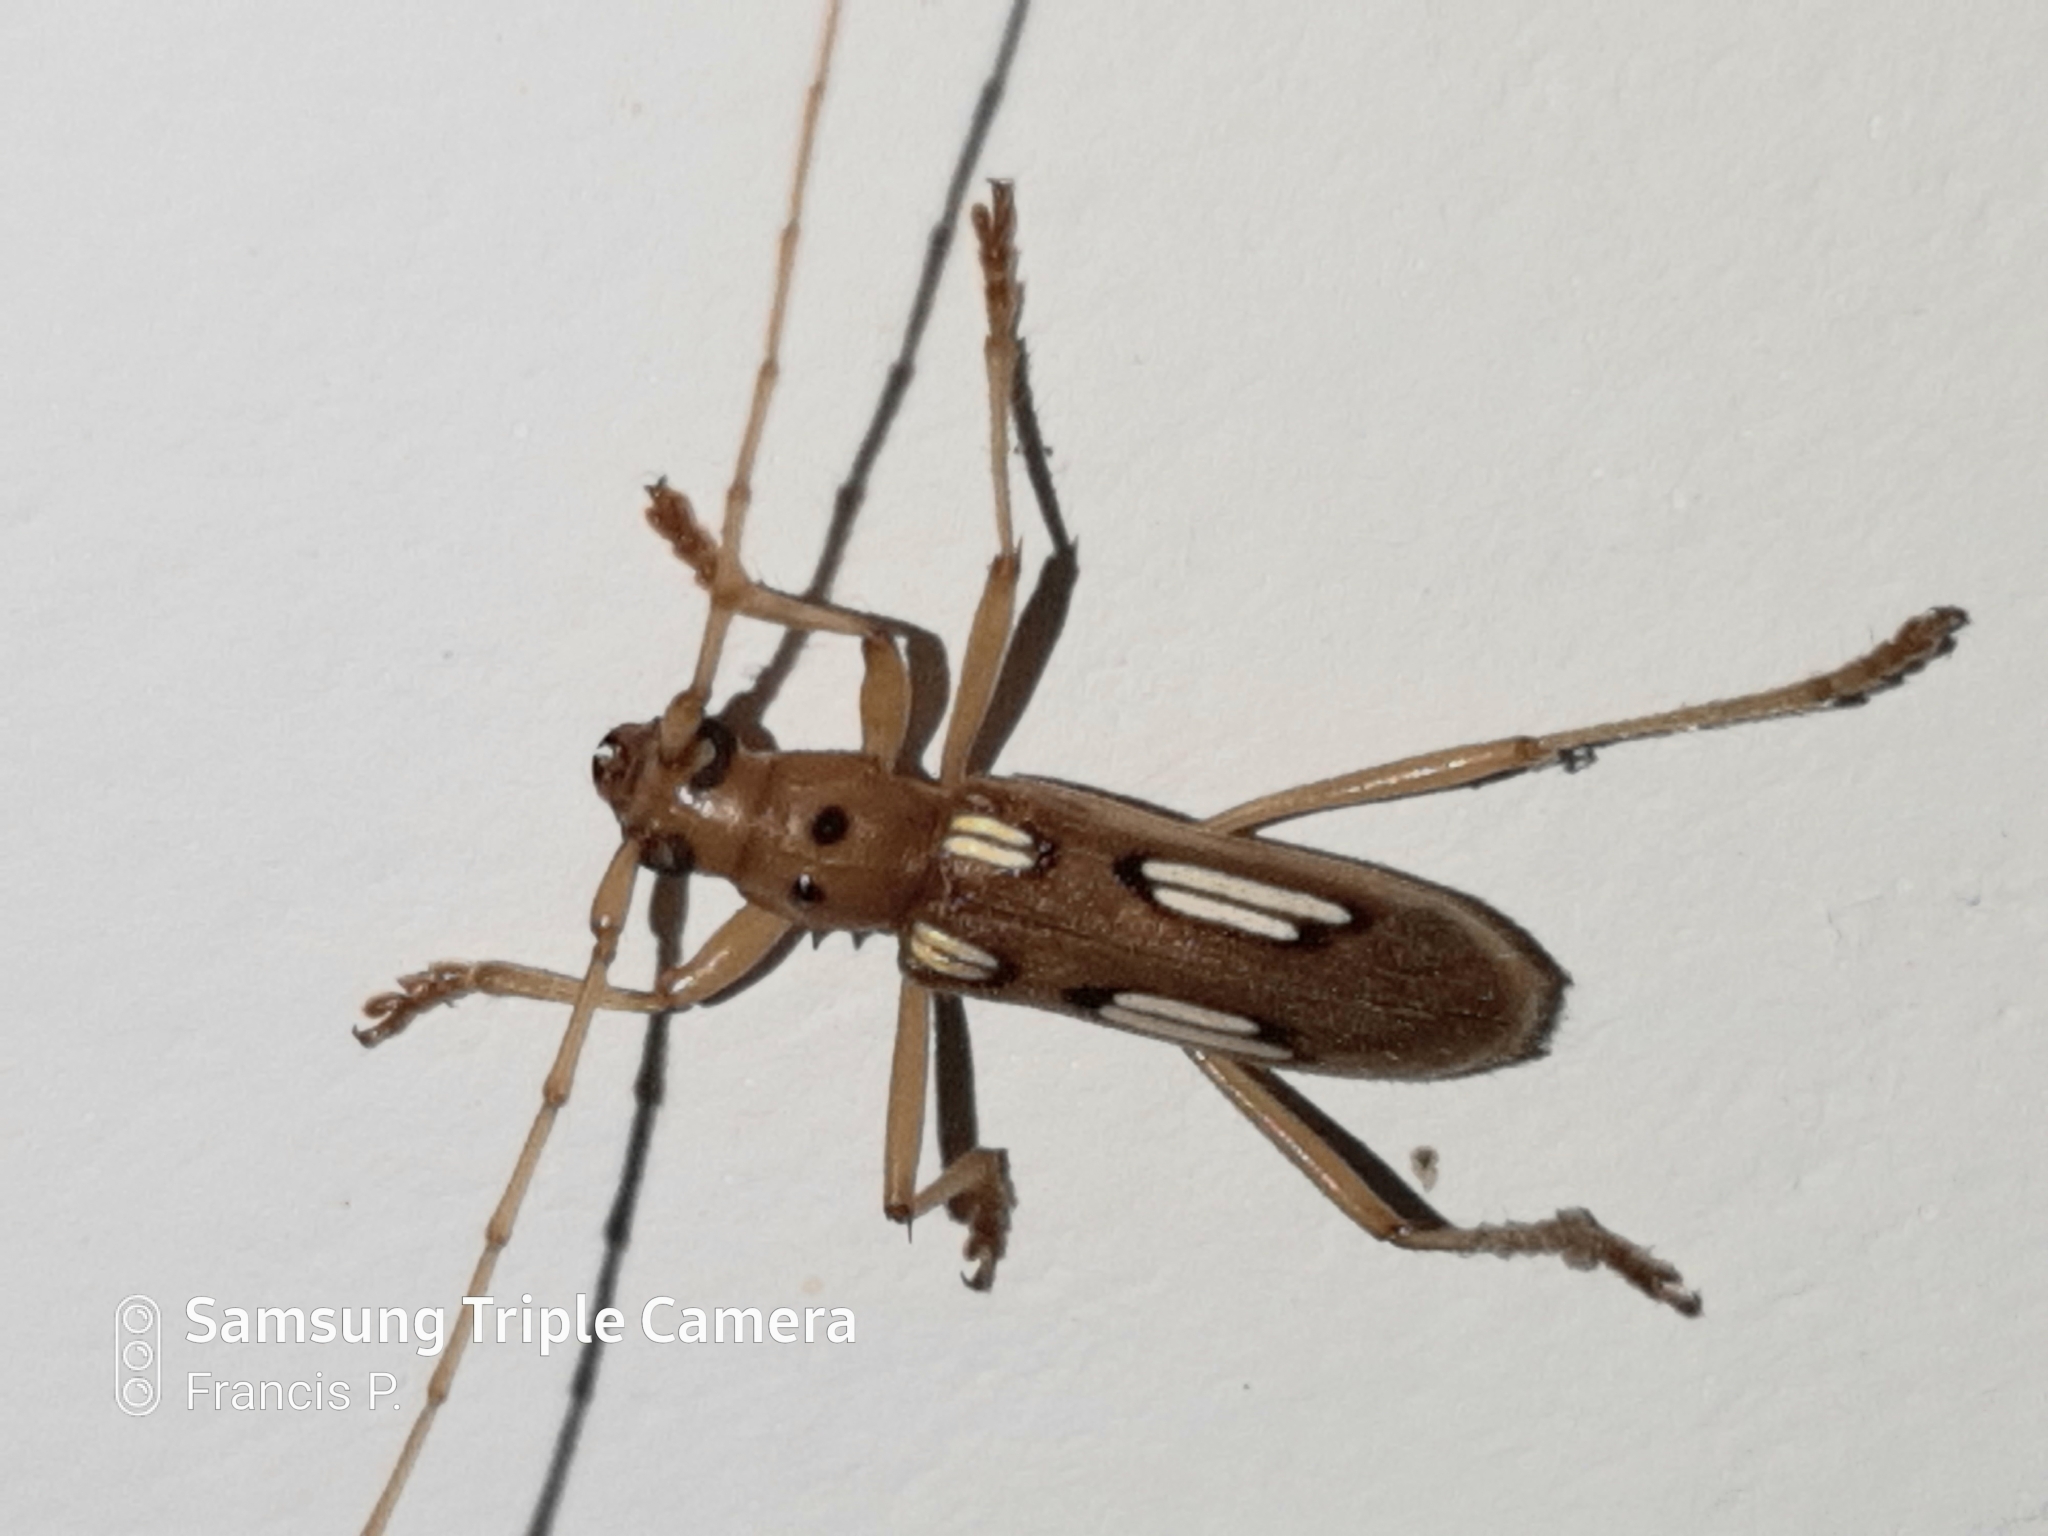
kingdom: Animalia
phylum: Arthropoda
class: Insecta
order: Coleoptera
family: Cerambycidae
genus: Eburia
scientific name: Eburia amabilis
